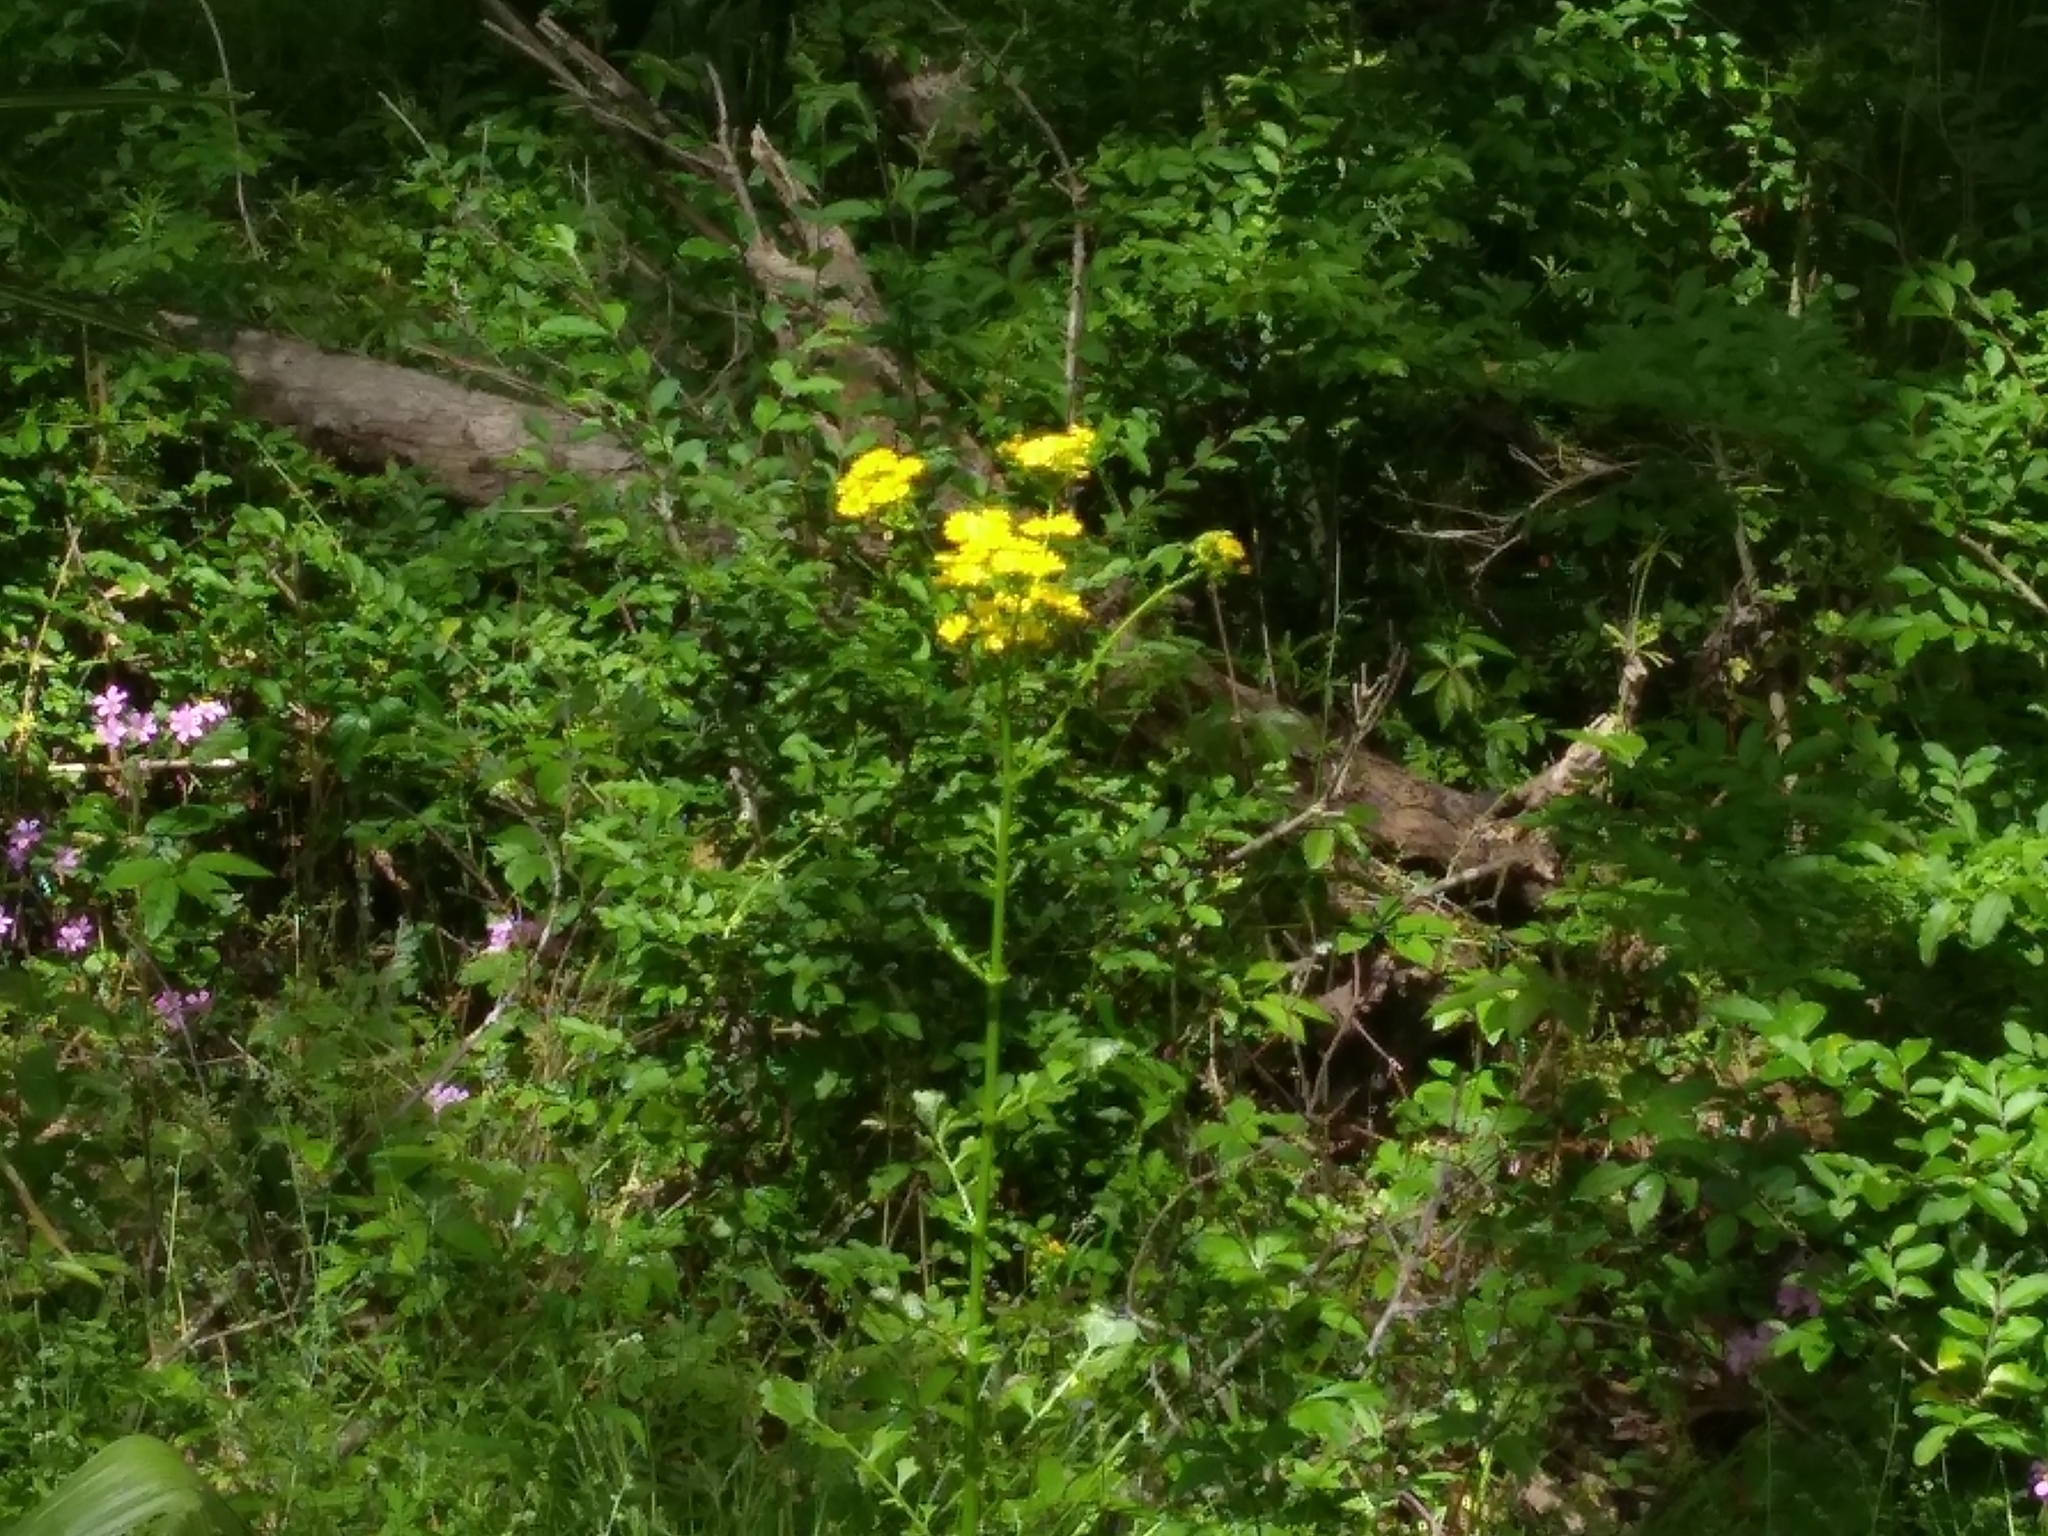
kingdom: Plantae
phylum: Tracheophyta
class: Magnoliopsida
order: Asterales
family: Asteraceae
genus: Packera
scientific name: Packera glabella
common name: Butterweed
